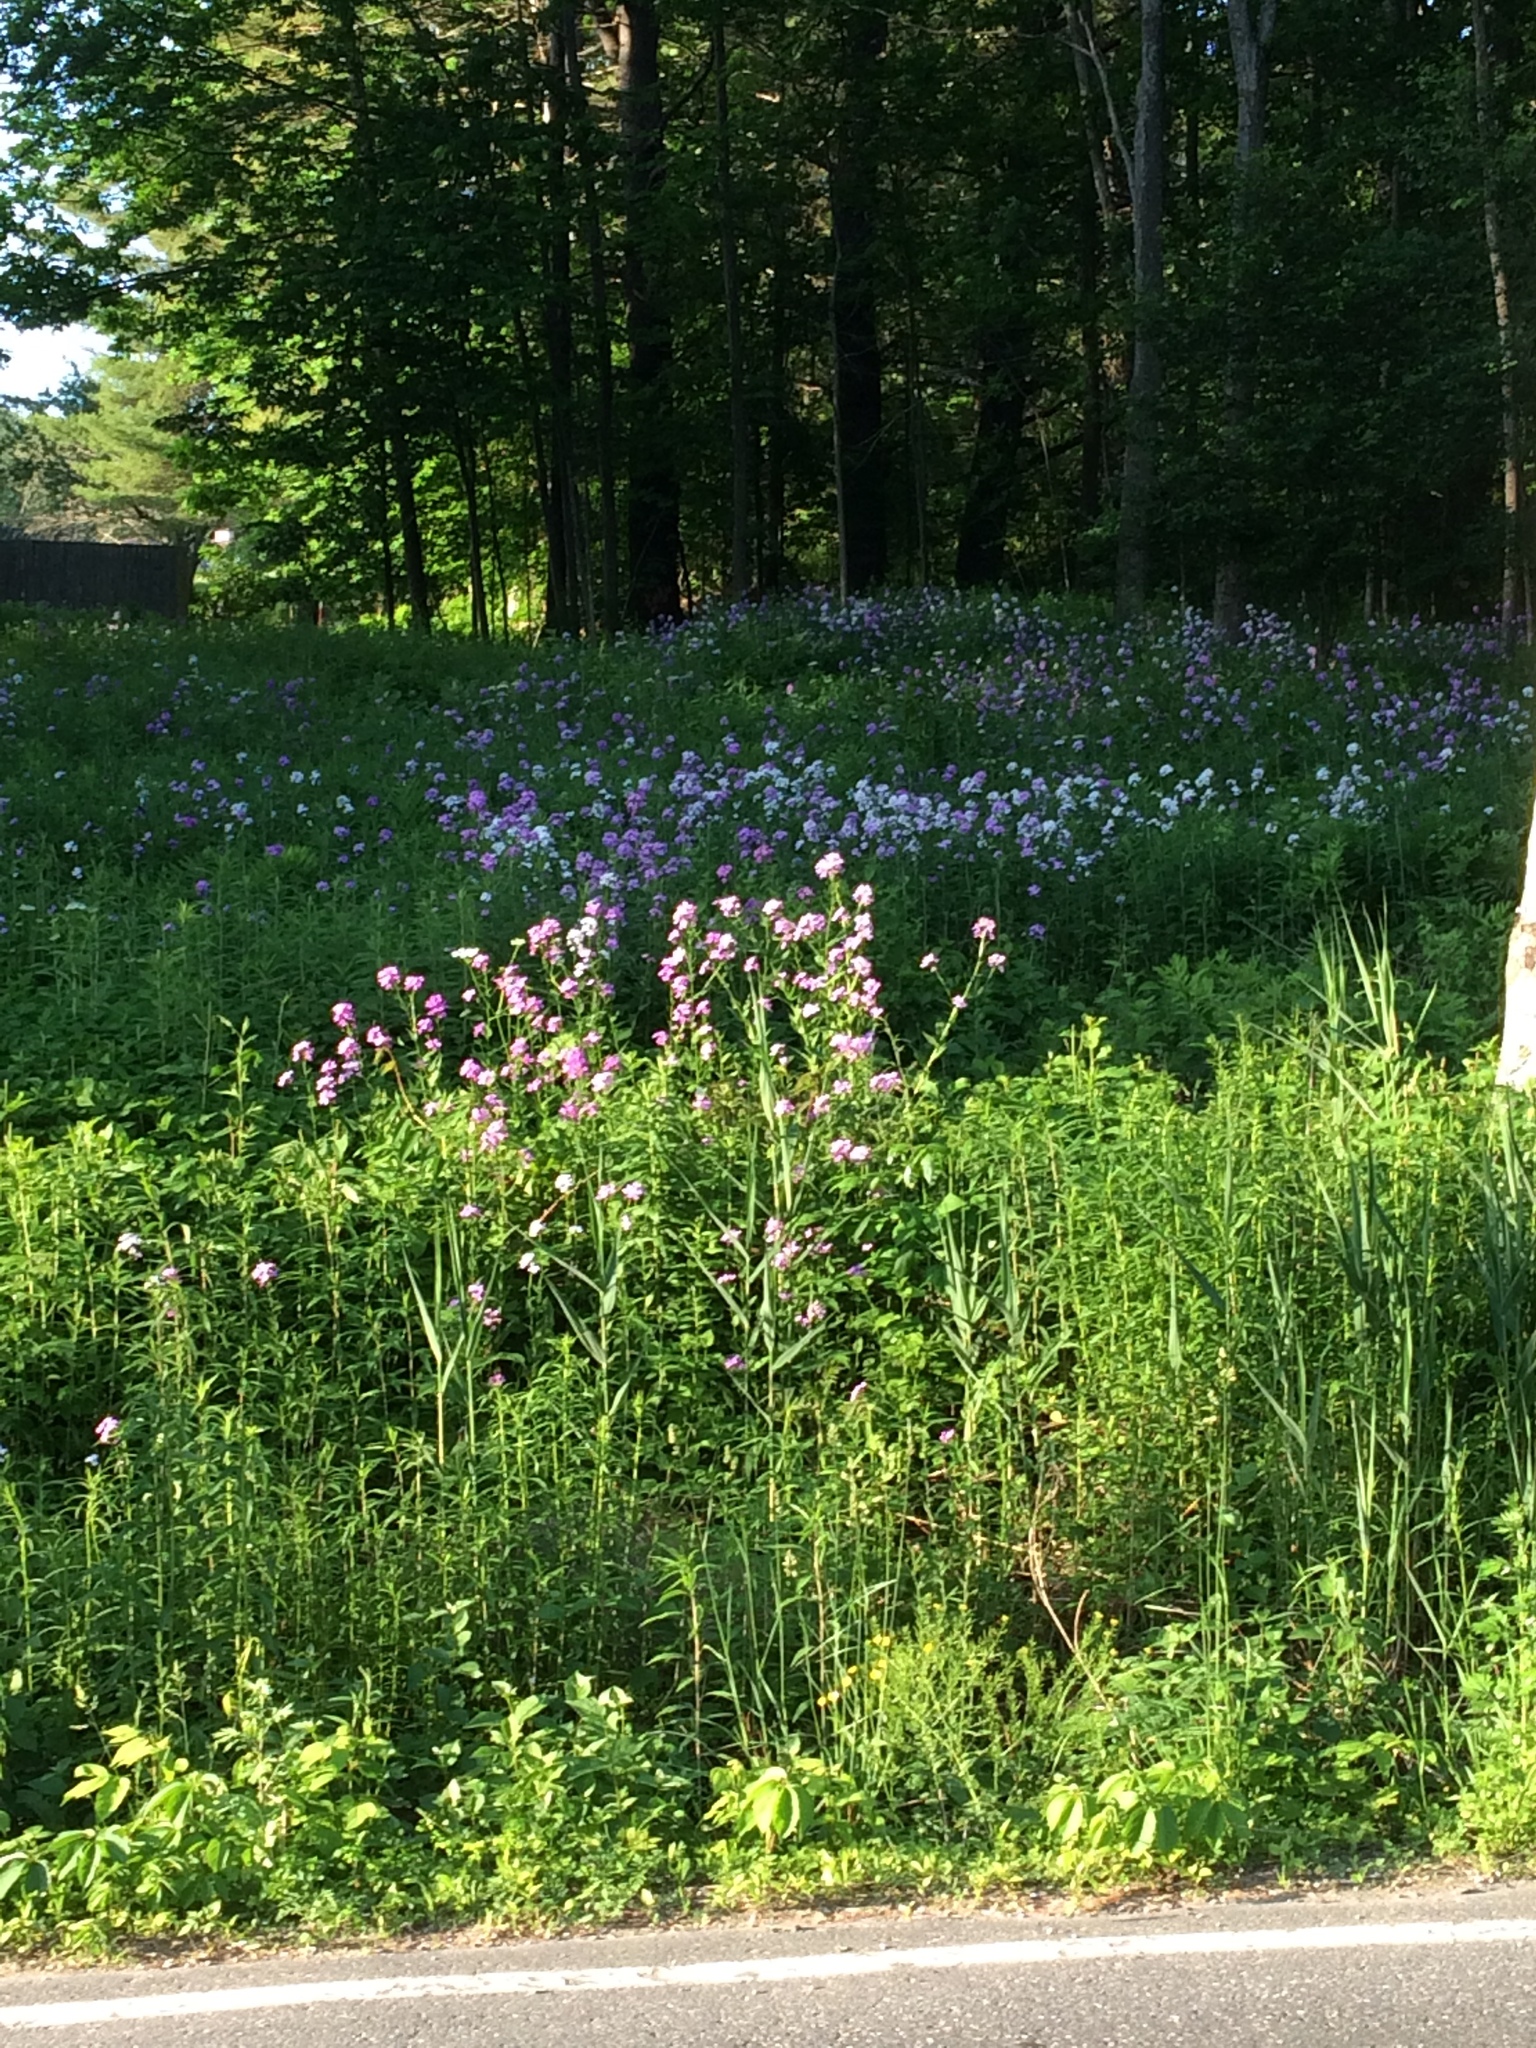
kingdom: Plantae
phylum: Tracheophyta
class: Magnoliopsida
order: Brassicales
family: Brassicaceae
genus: Hesperis
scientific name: Hesperis matronalis
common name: Dame's-violet
